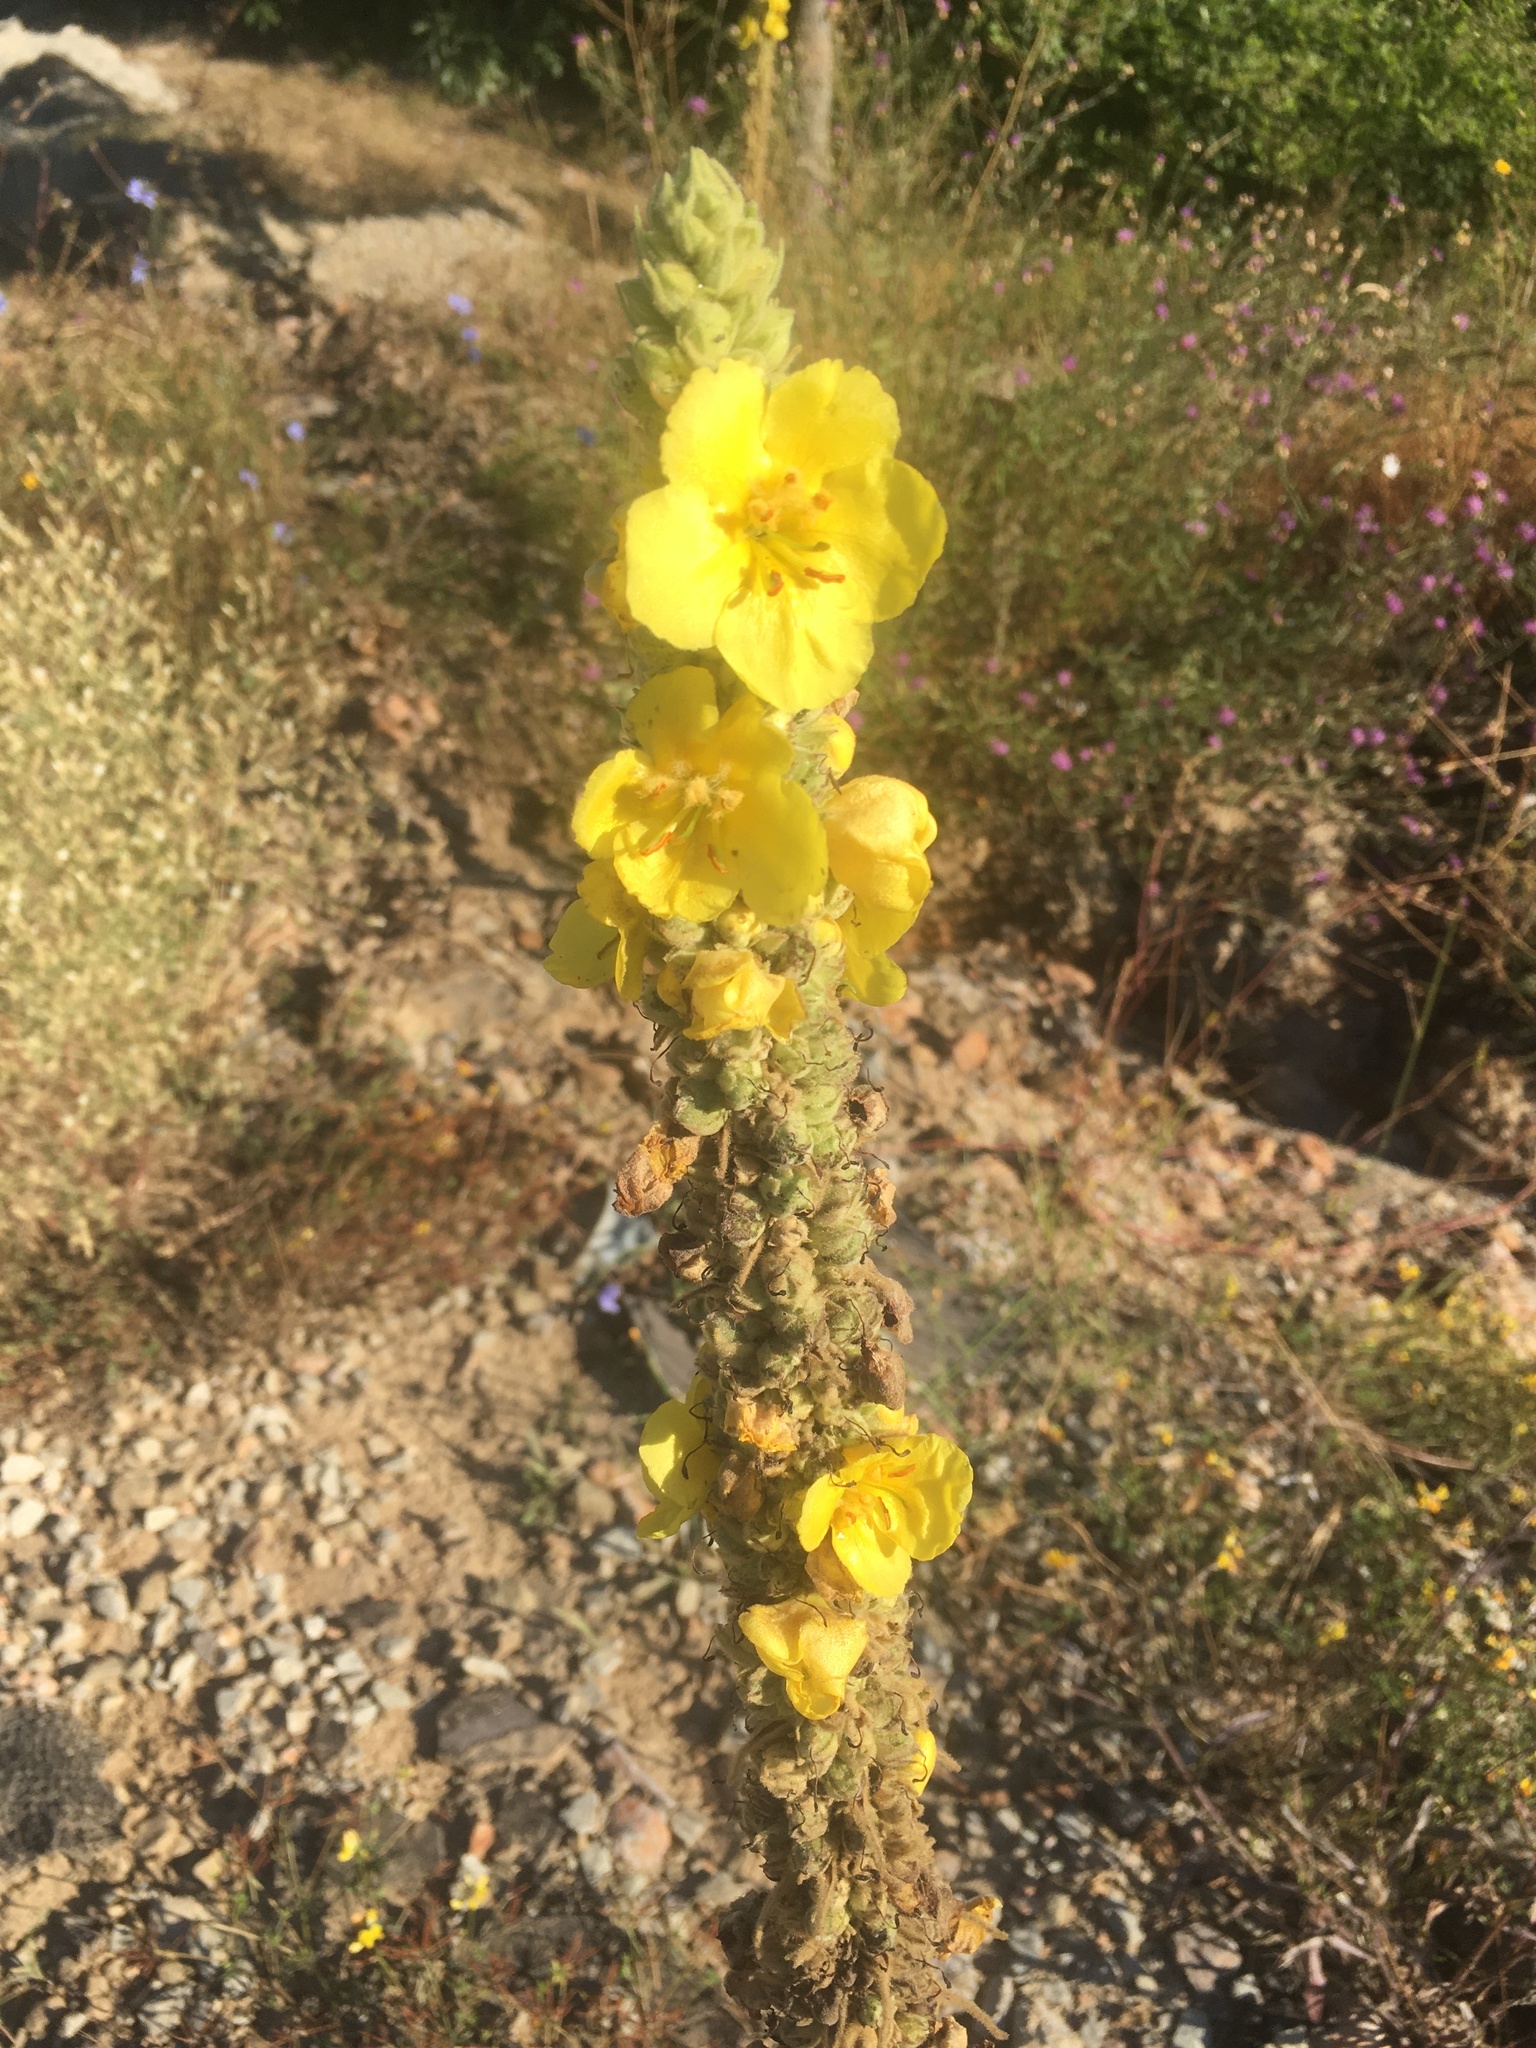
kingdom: Plantae
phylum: Tracheophyta
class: Magnoliopsida
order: Lamiales
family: Scrophulariaceae
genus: Verbascum
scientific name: Verbascum densiflorum
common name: Dense-flowered mullein
